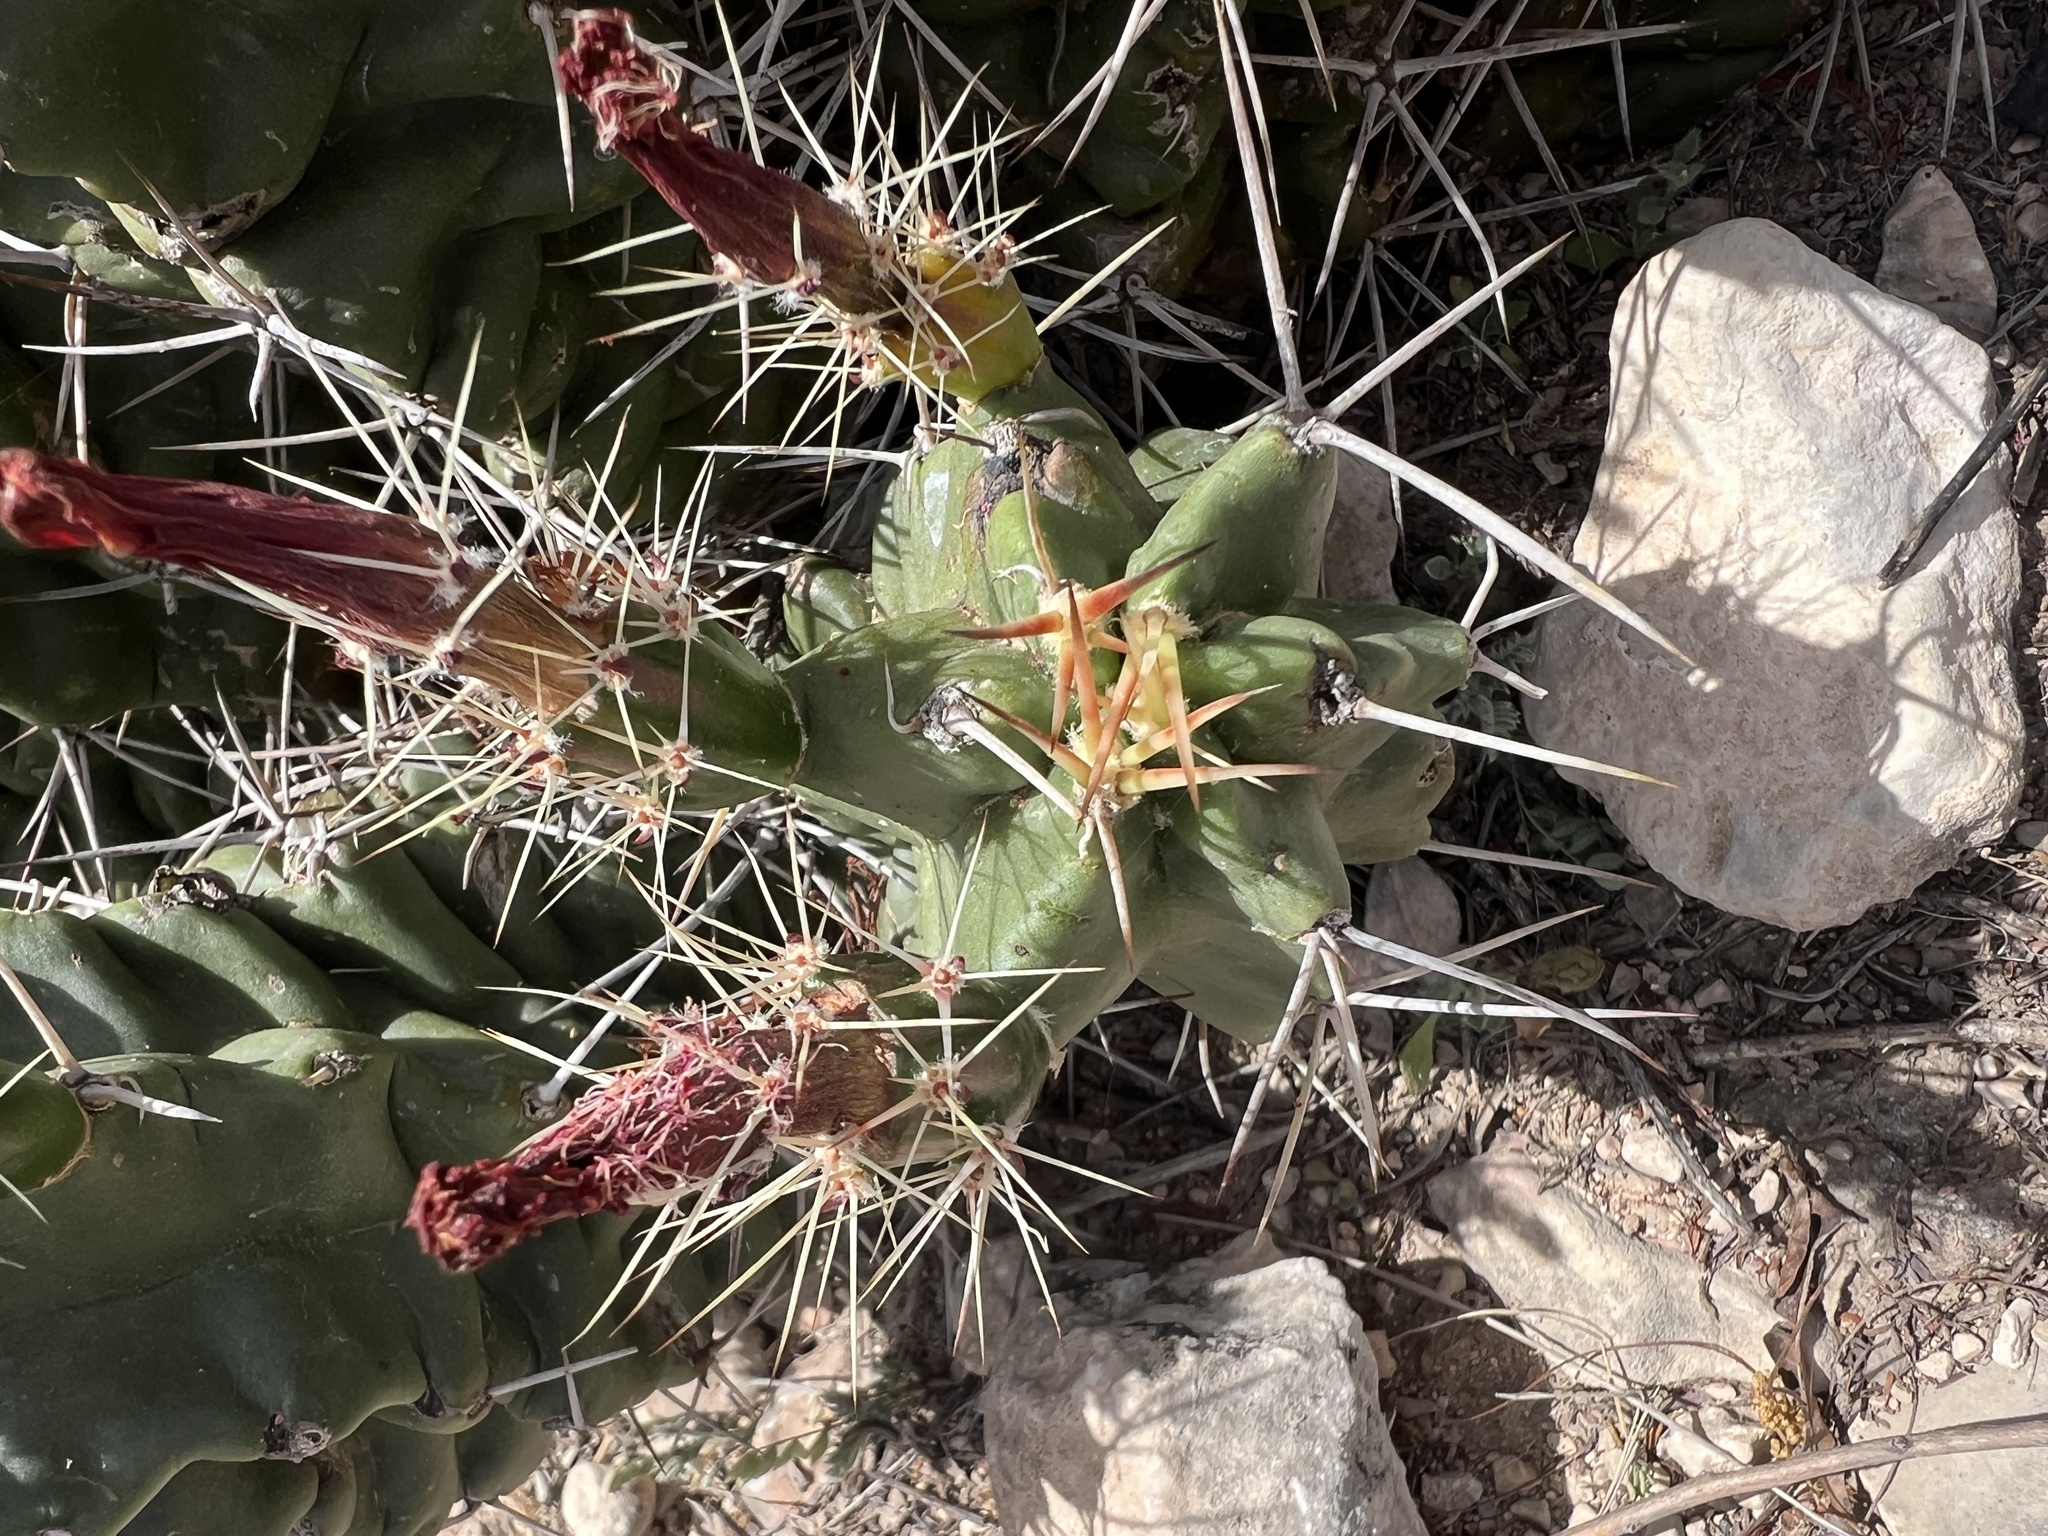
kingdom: Plantae
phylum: Tracheophyta
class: Magnoliopsida
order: Caryophyllales
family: Cactaceae
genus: Echinocereus
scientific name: Echinocereus coccineus
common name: Scarlet hedgehog cactus
